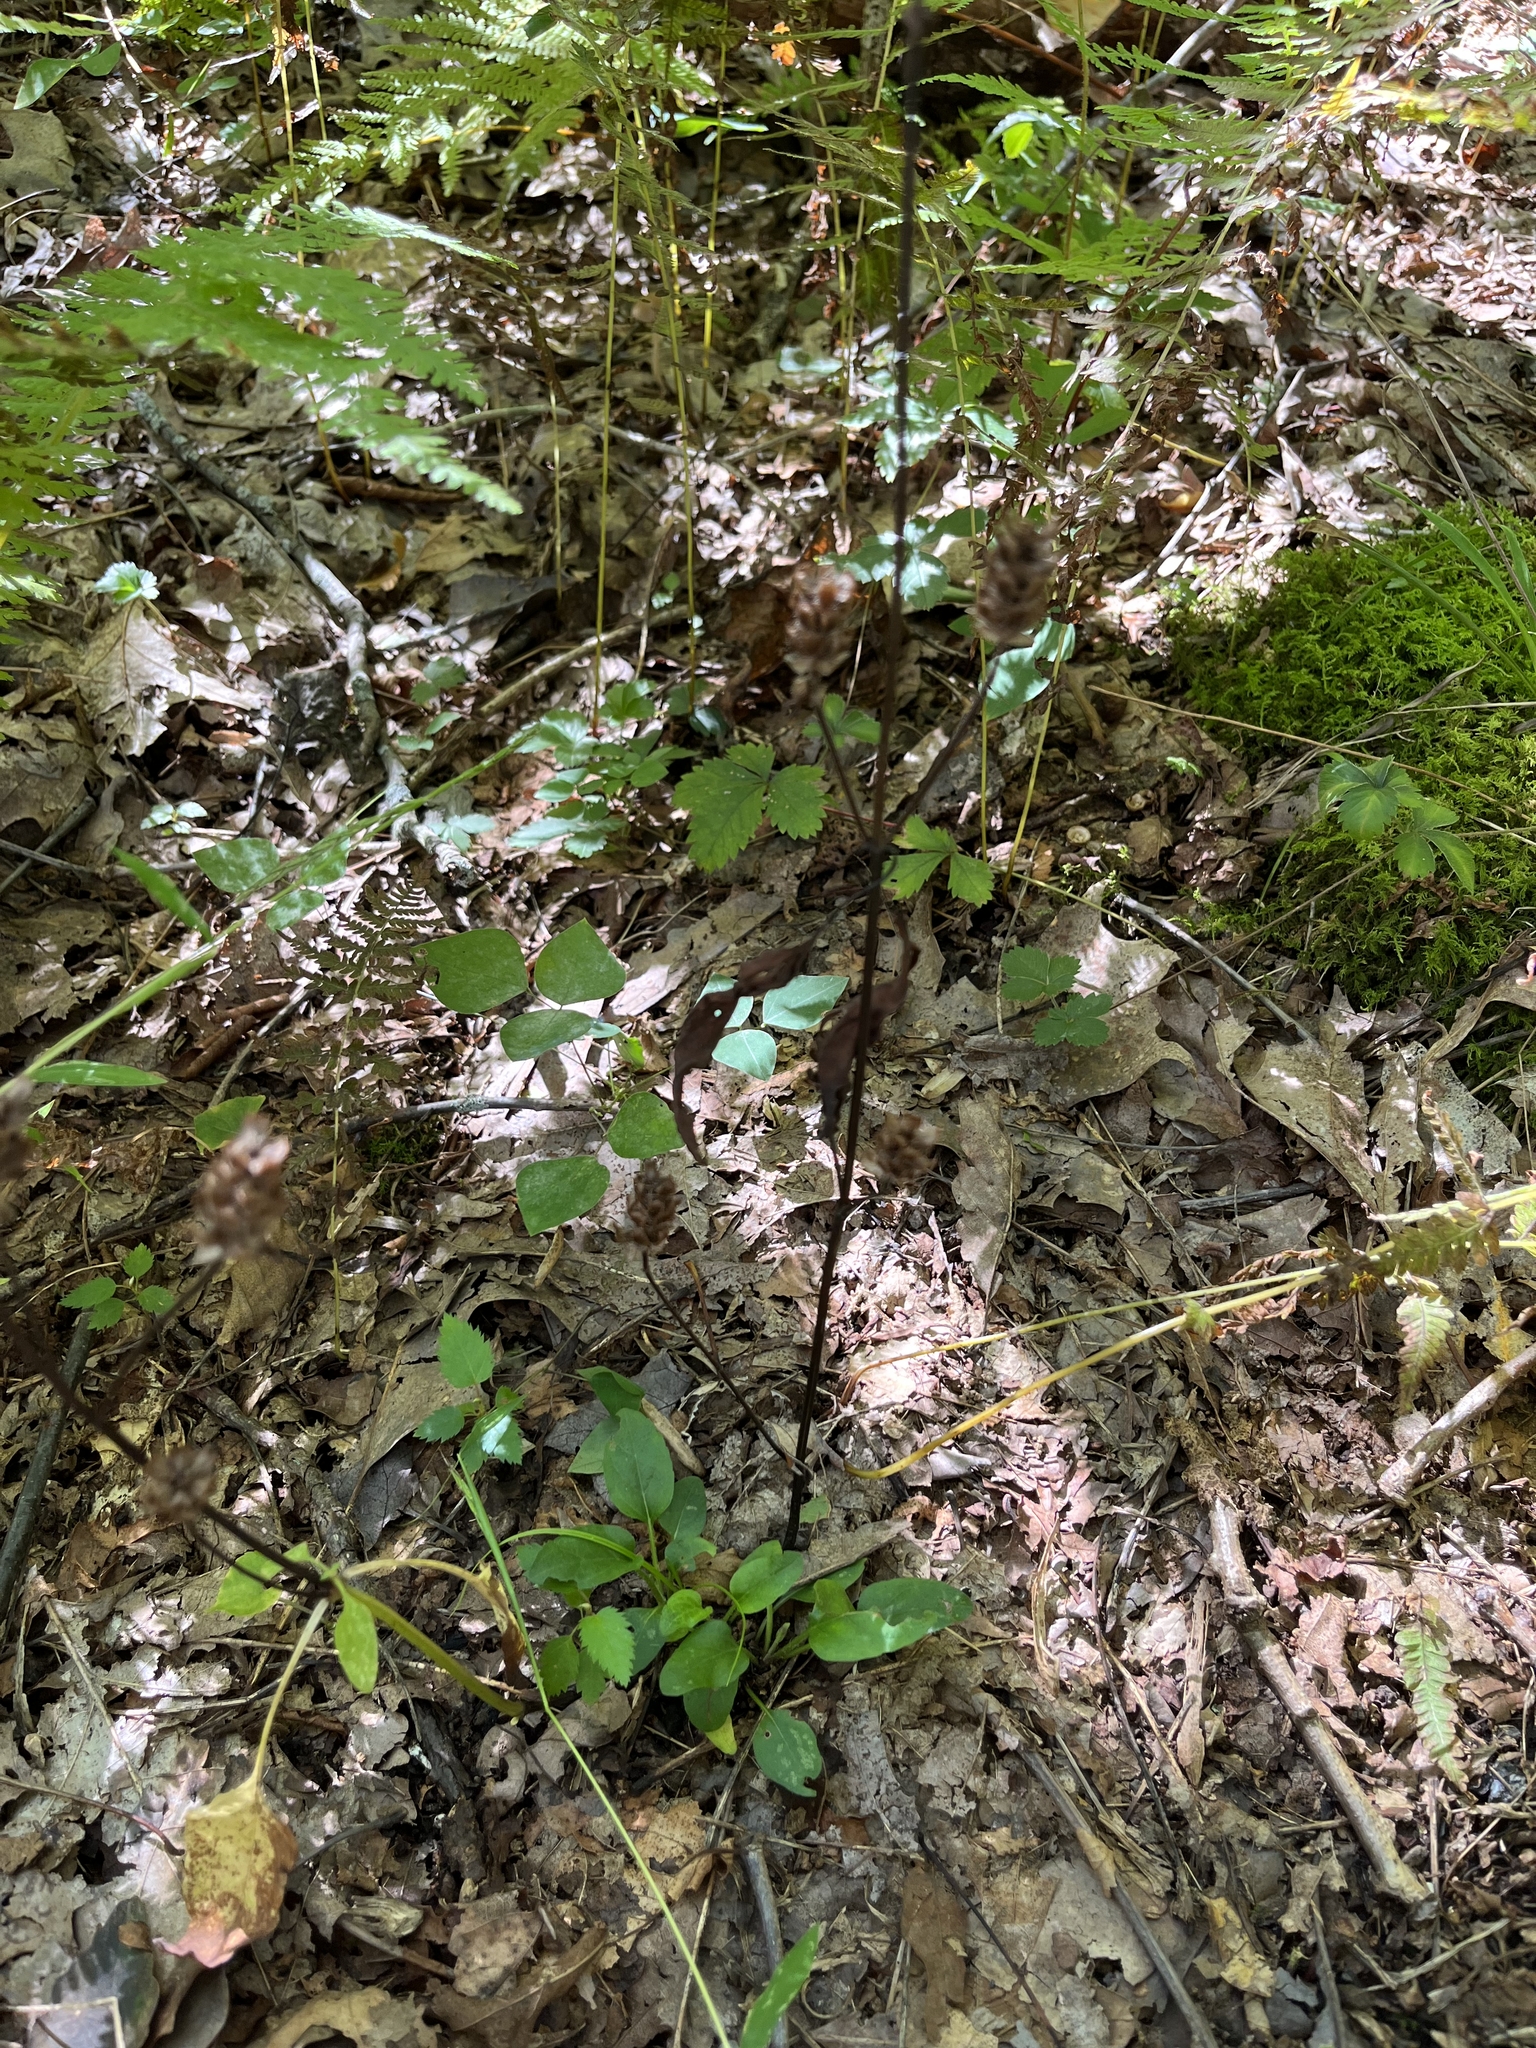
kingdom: Plantae
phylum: Tracheophyta
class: Magnoliopsida
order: Lamiales
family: Lamiaceae
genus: Prunella
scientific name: Prunella vulgaris
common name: Heal-all
